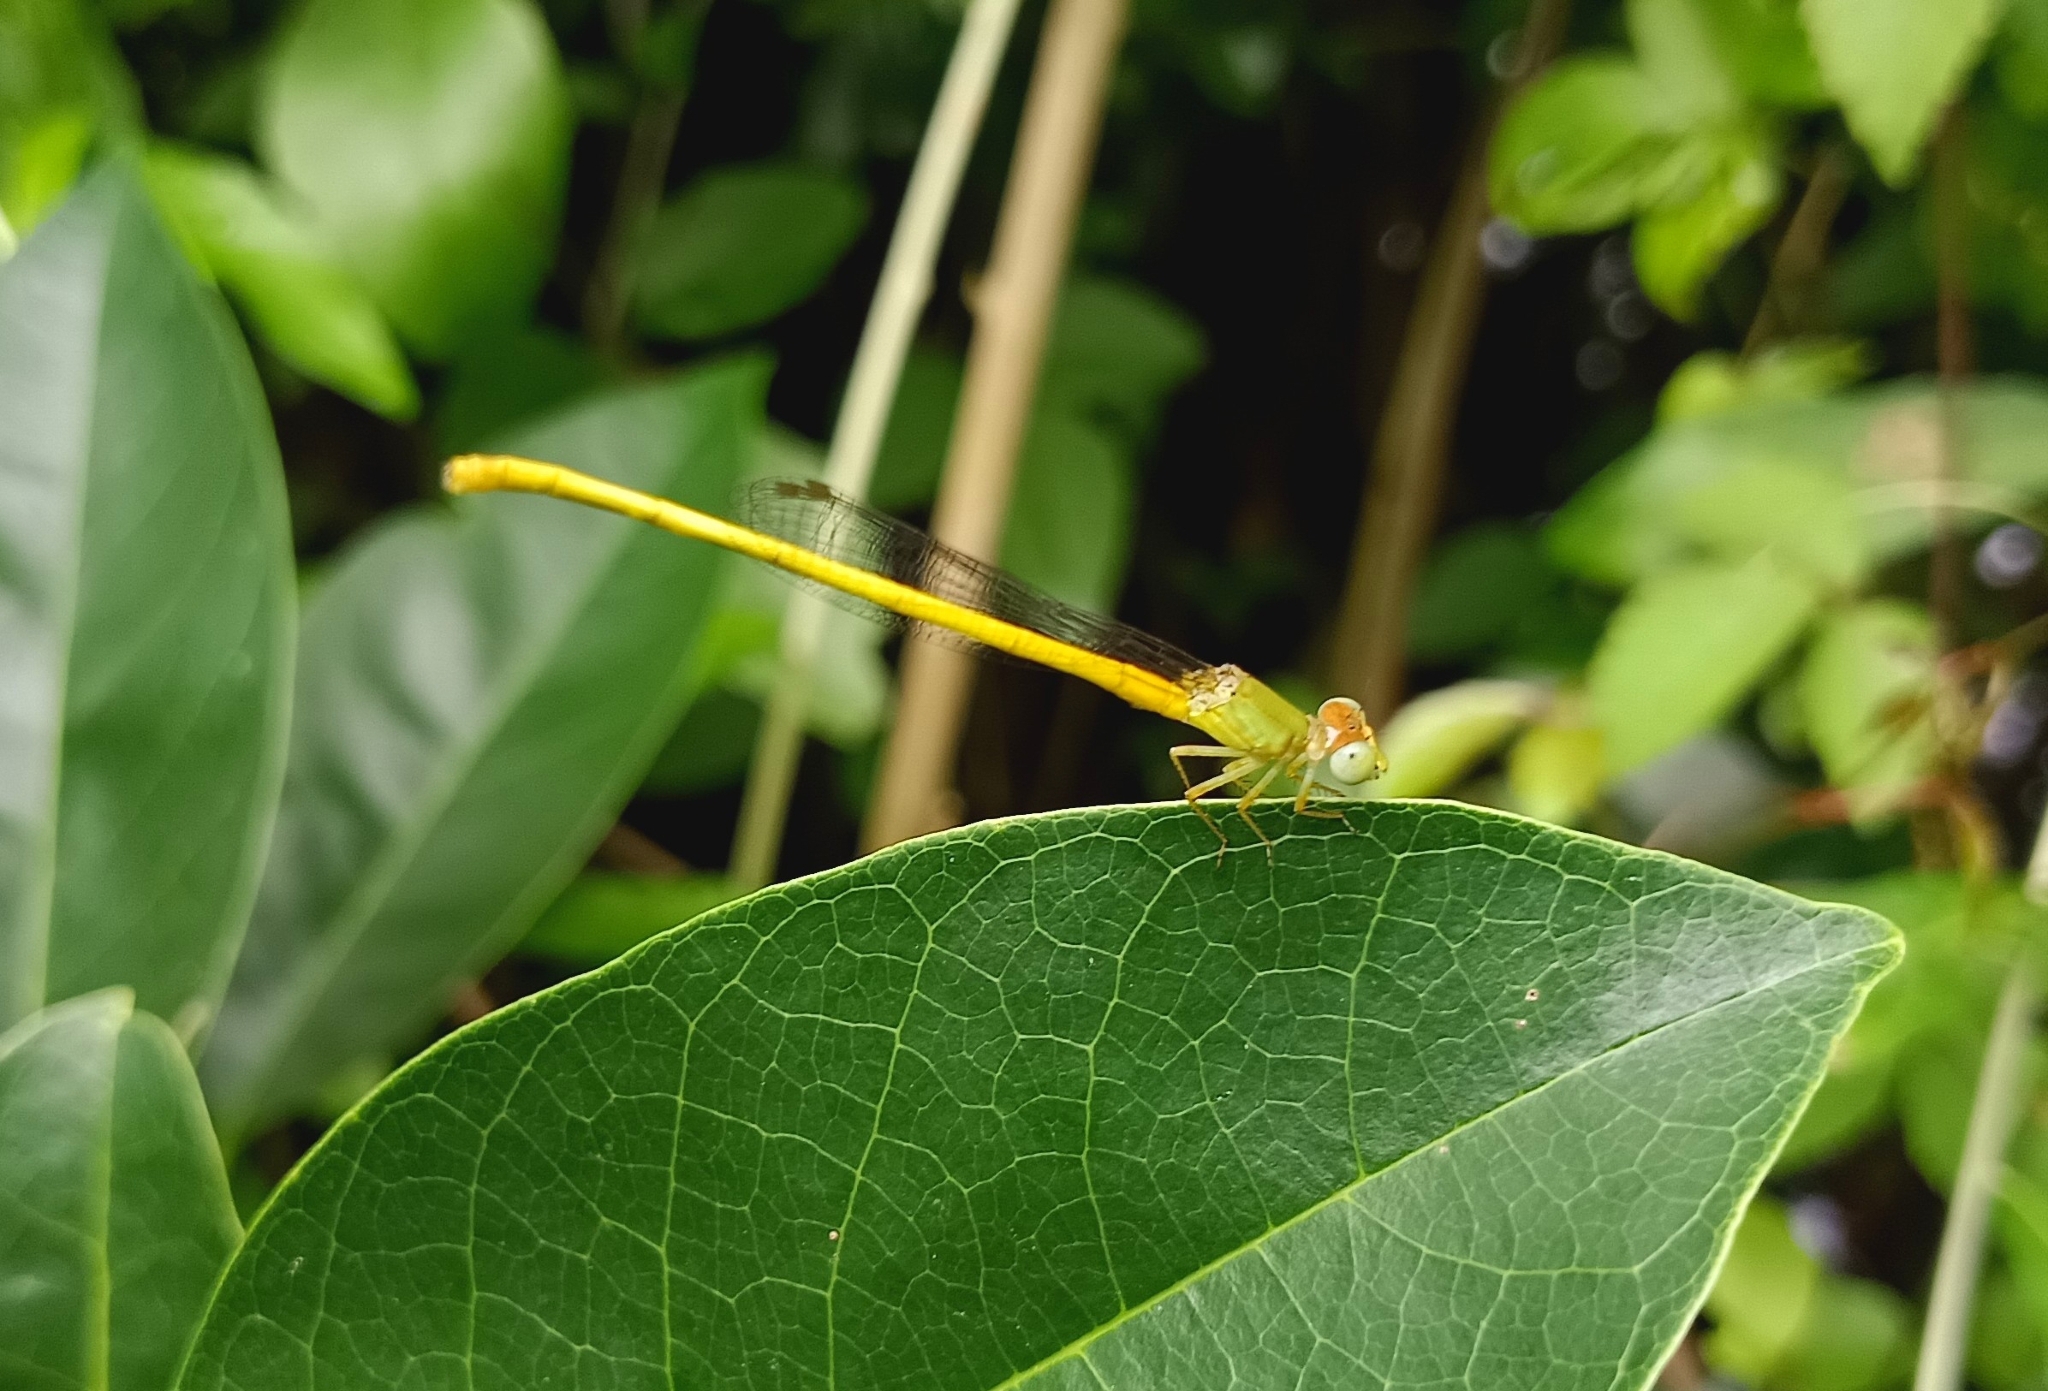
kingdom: Animalia
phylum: Arthropoda
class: Insecta
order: Odonata
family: Coenagrionidae
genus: Ceriagrion
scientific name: Ceriagrion coromandelianum
